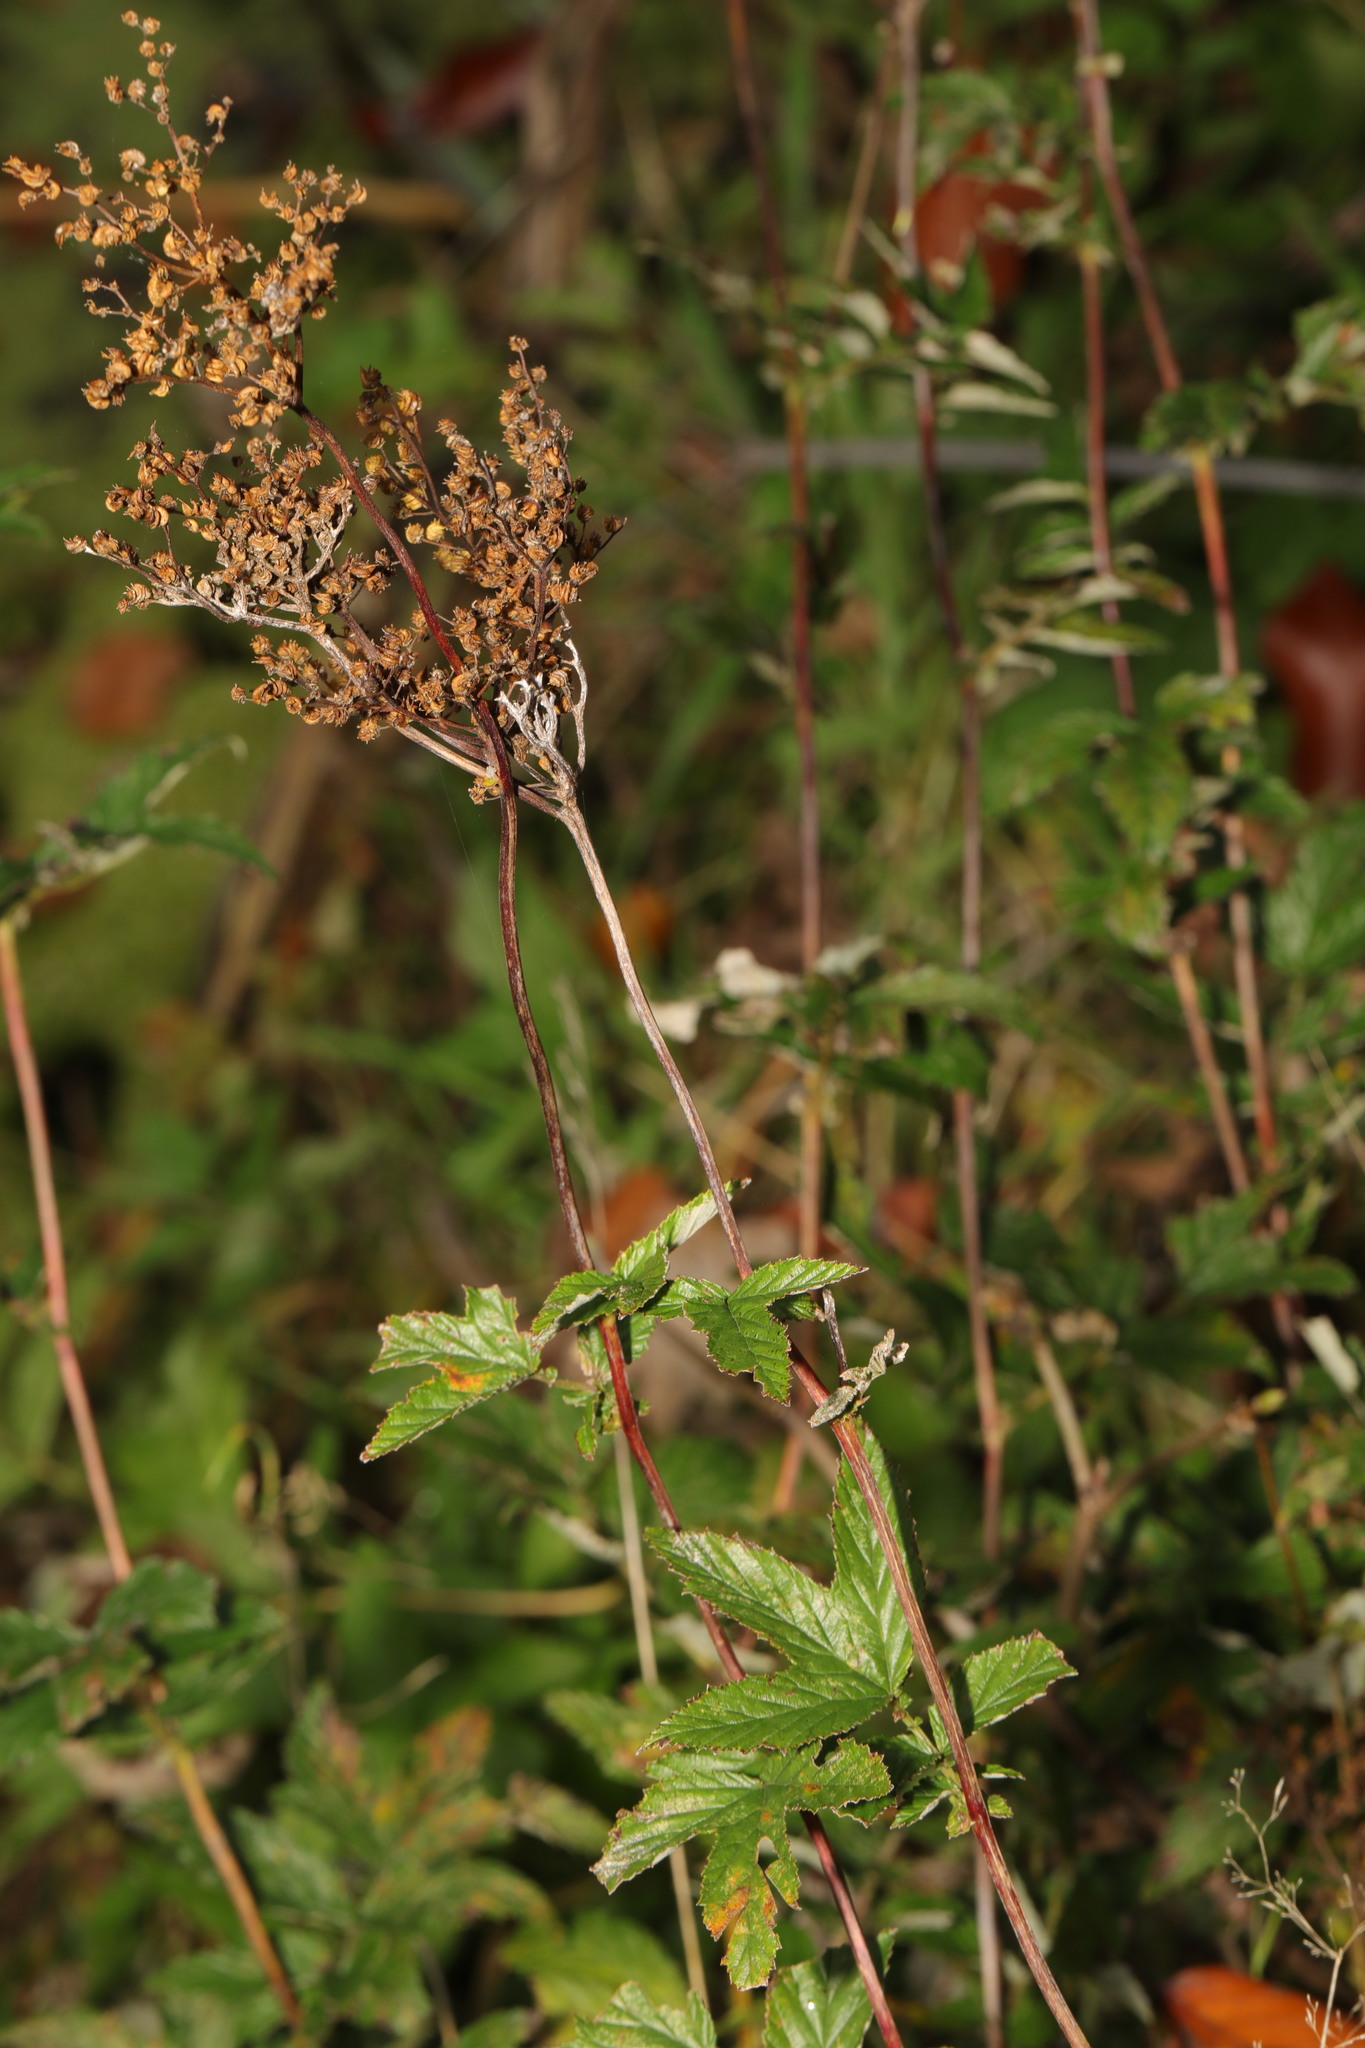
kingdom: Plantae
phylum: Tracheophyta
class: Magnoliopsida
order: Rosales
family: Rosaceae
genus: Filipendula
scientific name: Filipendula ulmaria
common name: Meadowsweet
